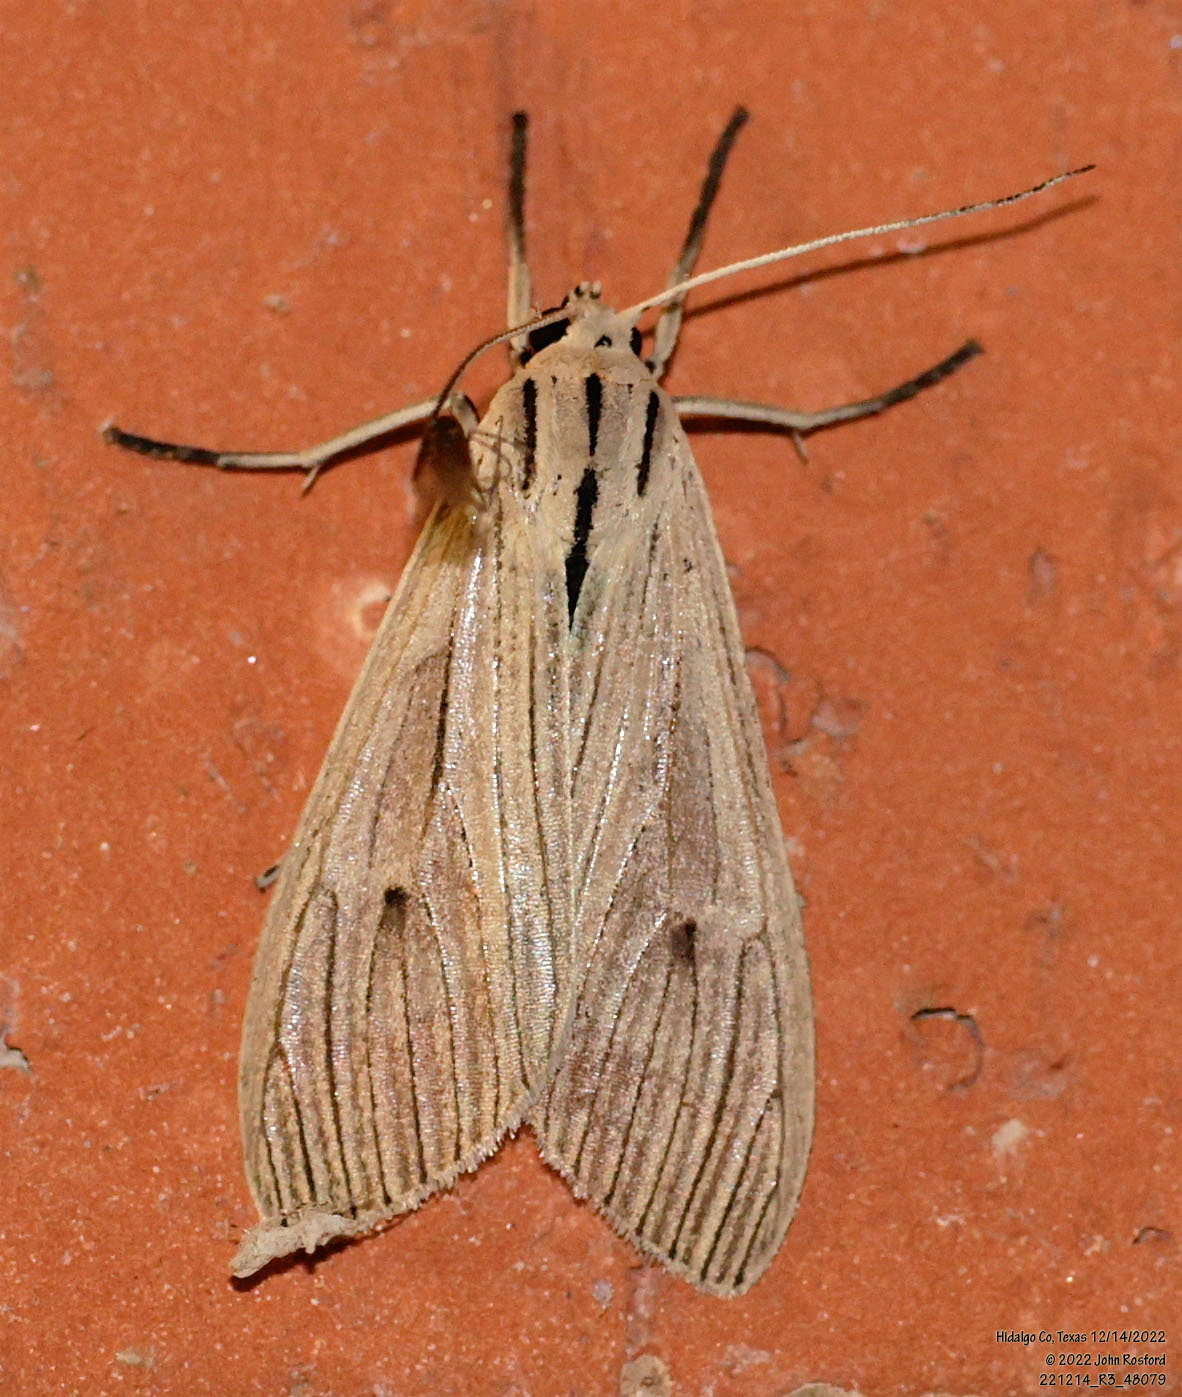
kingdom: Animalia
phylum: Arthropoda
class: Insecta
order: Lepidoptera
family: Erebidae
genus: Arctagyrta
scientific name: Arctagyrta Agaraea semivitrea
